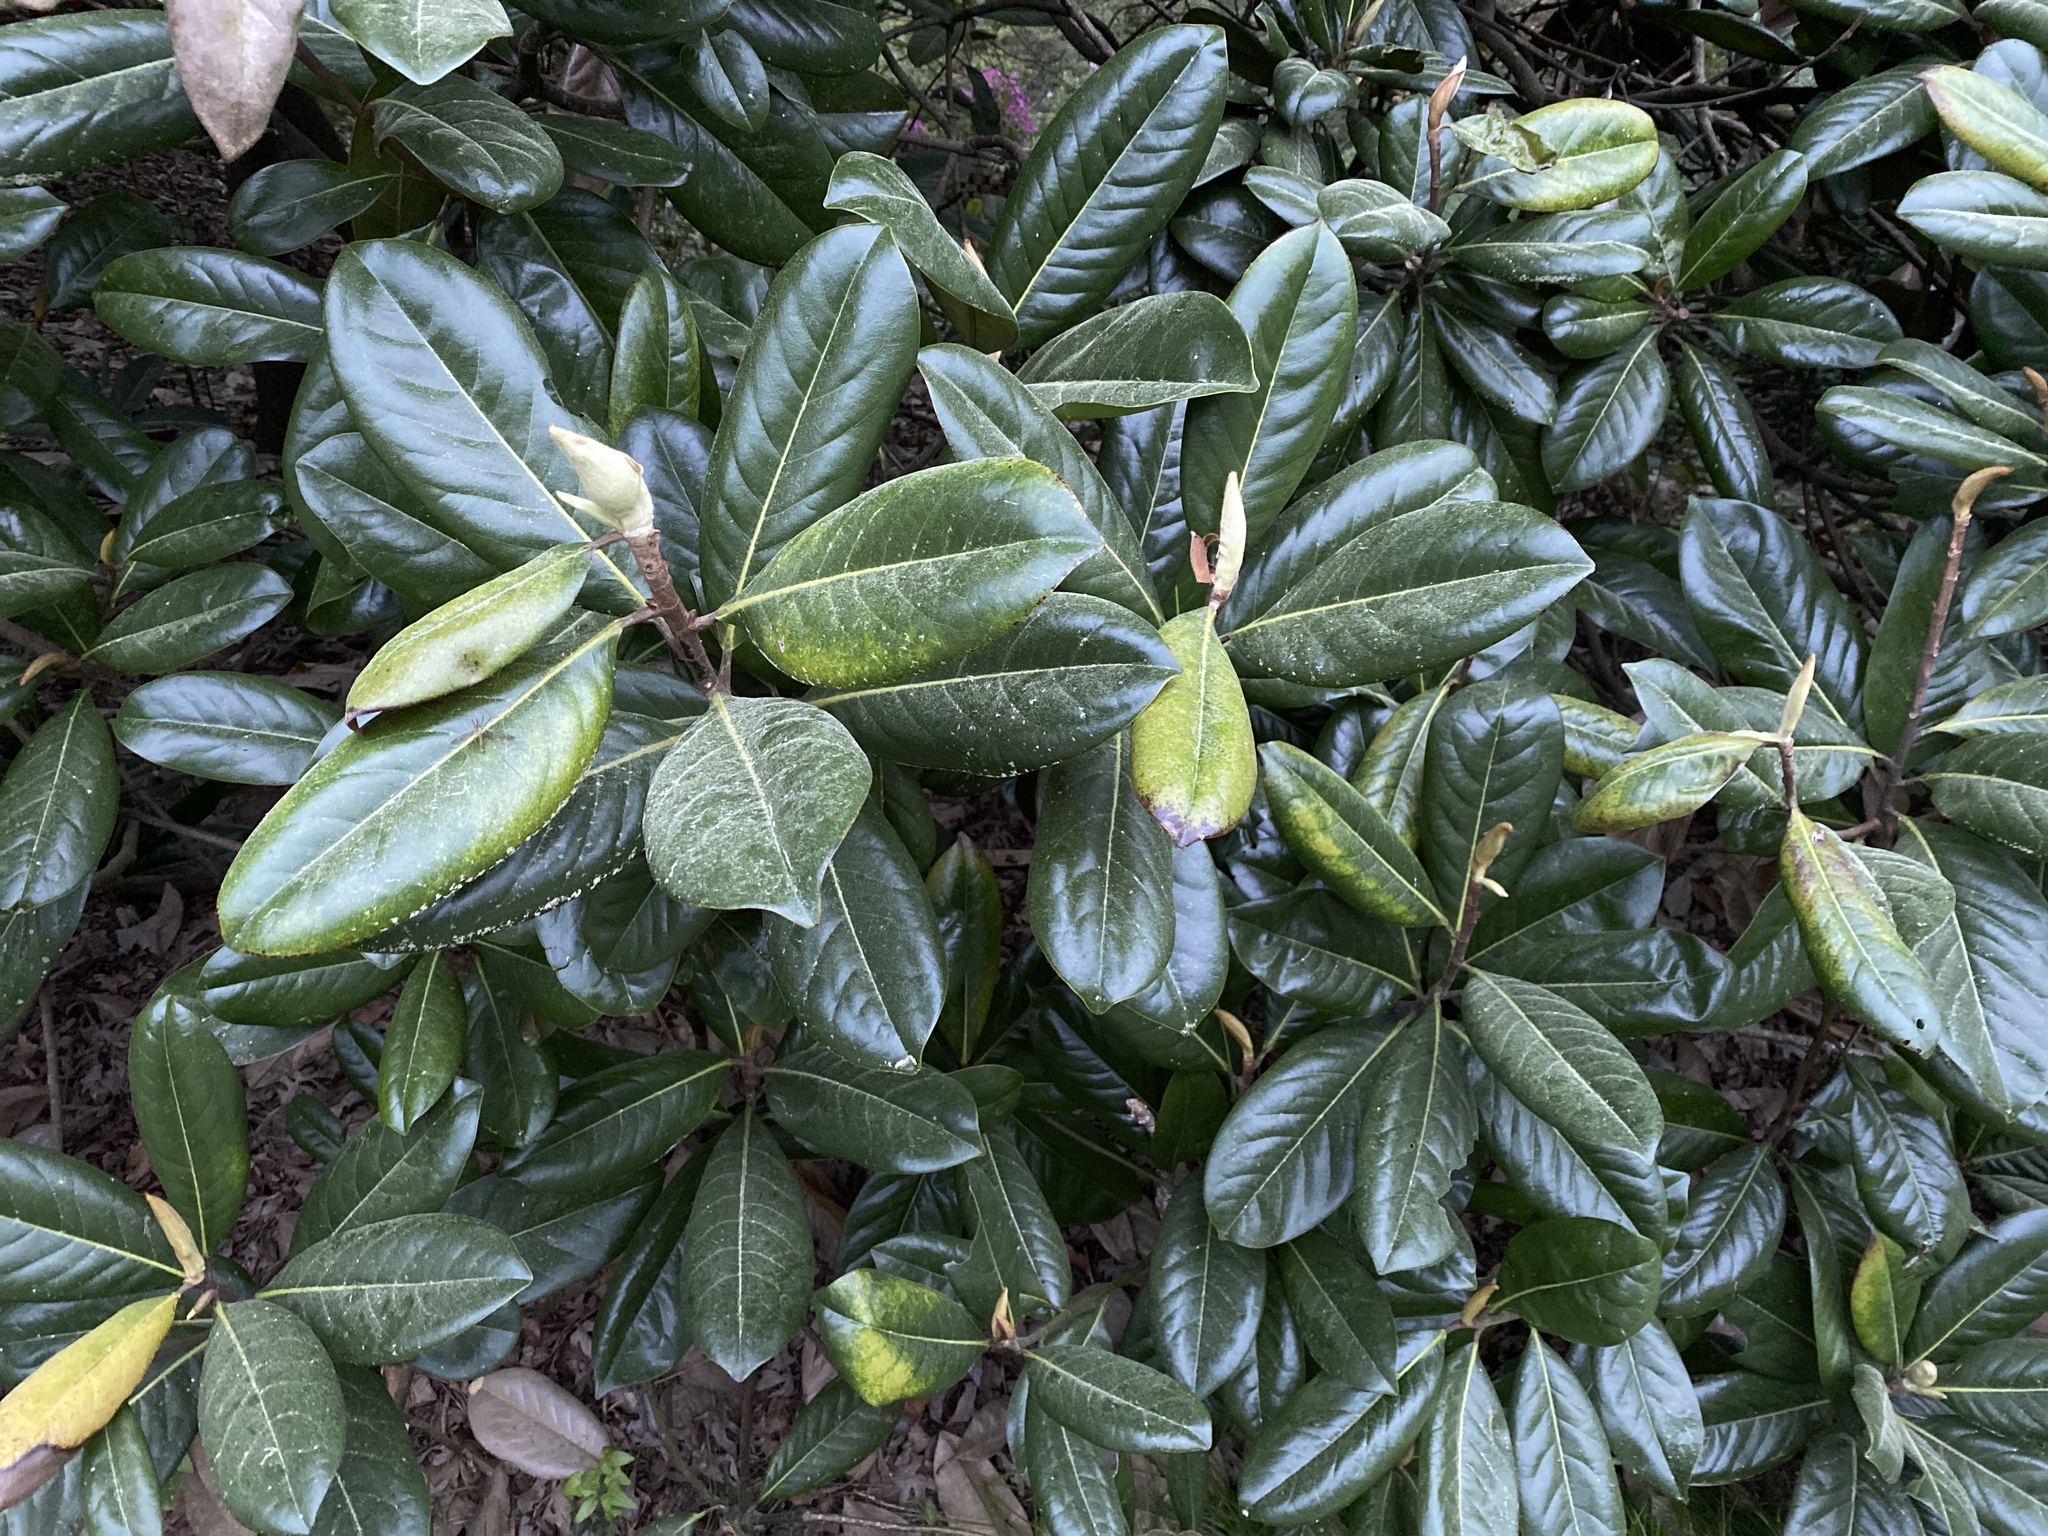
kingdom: Plantae
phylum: Tracheophyta
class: Magnoliopsida
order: Magnoliales
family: Magnoliaceae
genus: Magnolia
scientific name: Magnolia grandiflora
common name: Southern magnolia
